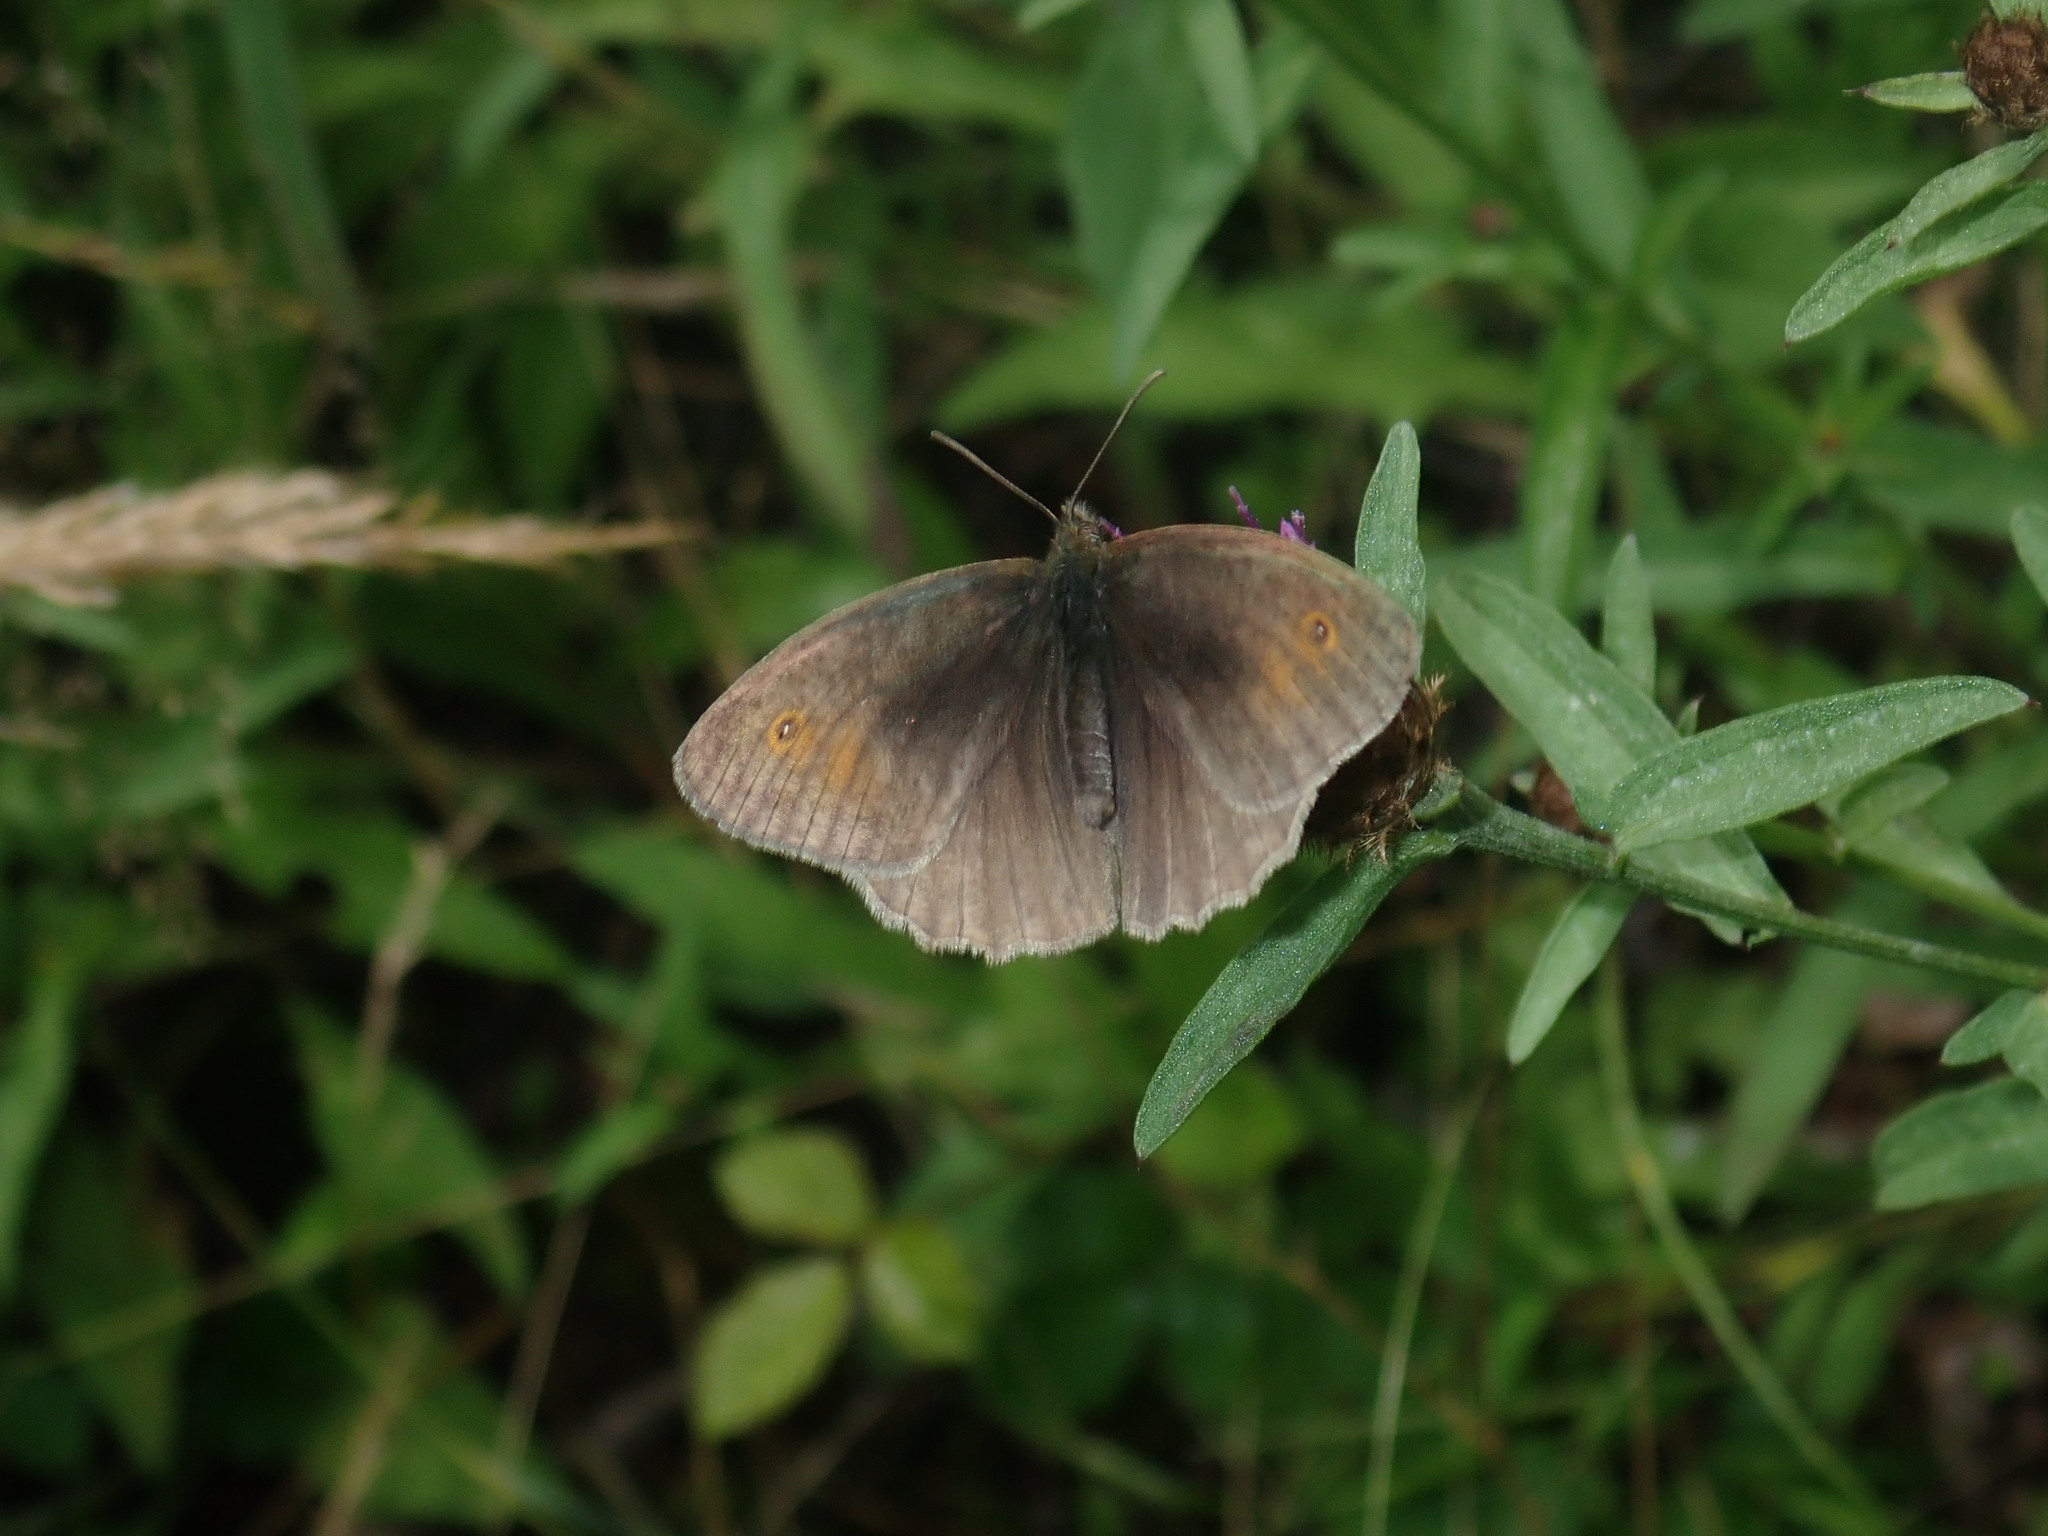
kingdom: Animalia
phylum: Arthropoda
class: Insecta
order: Lepidoptera
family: Nymphalidae
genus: Maniola
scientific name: Maniola jurtina
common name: Meadow brown
